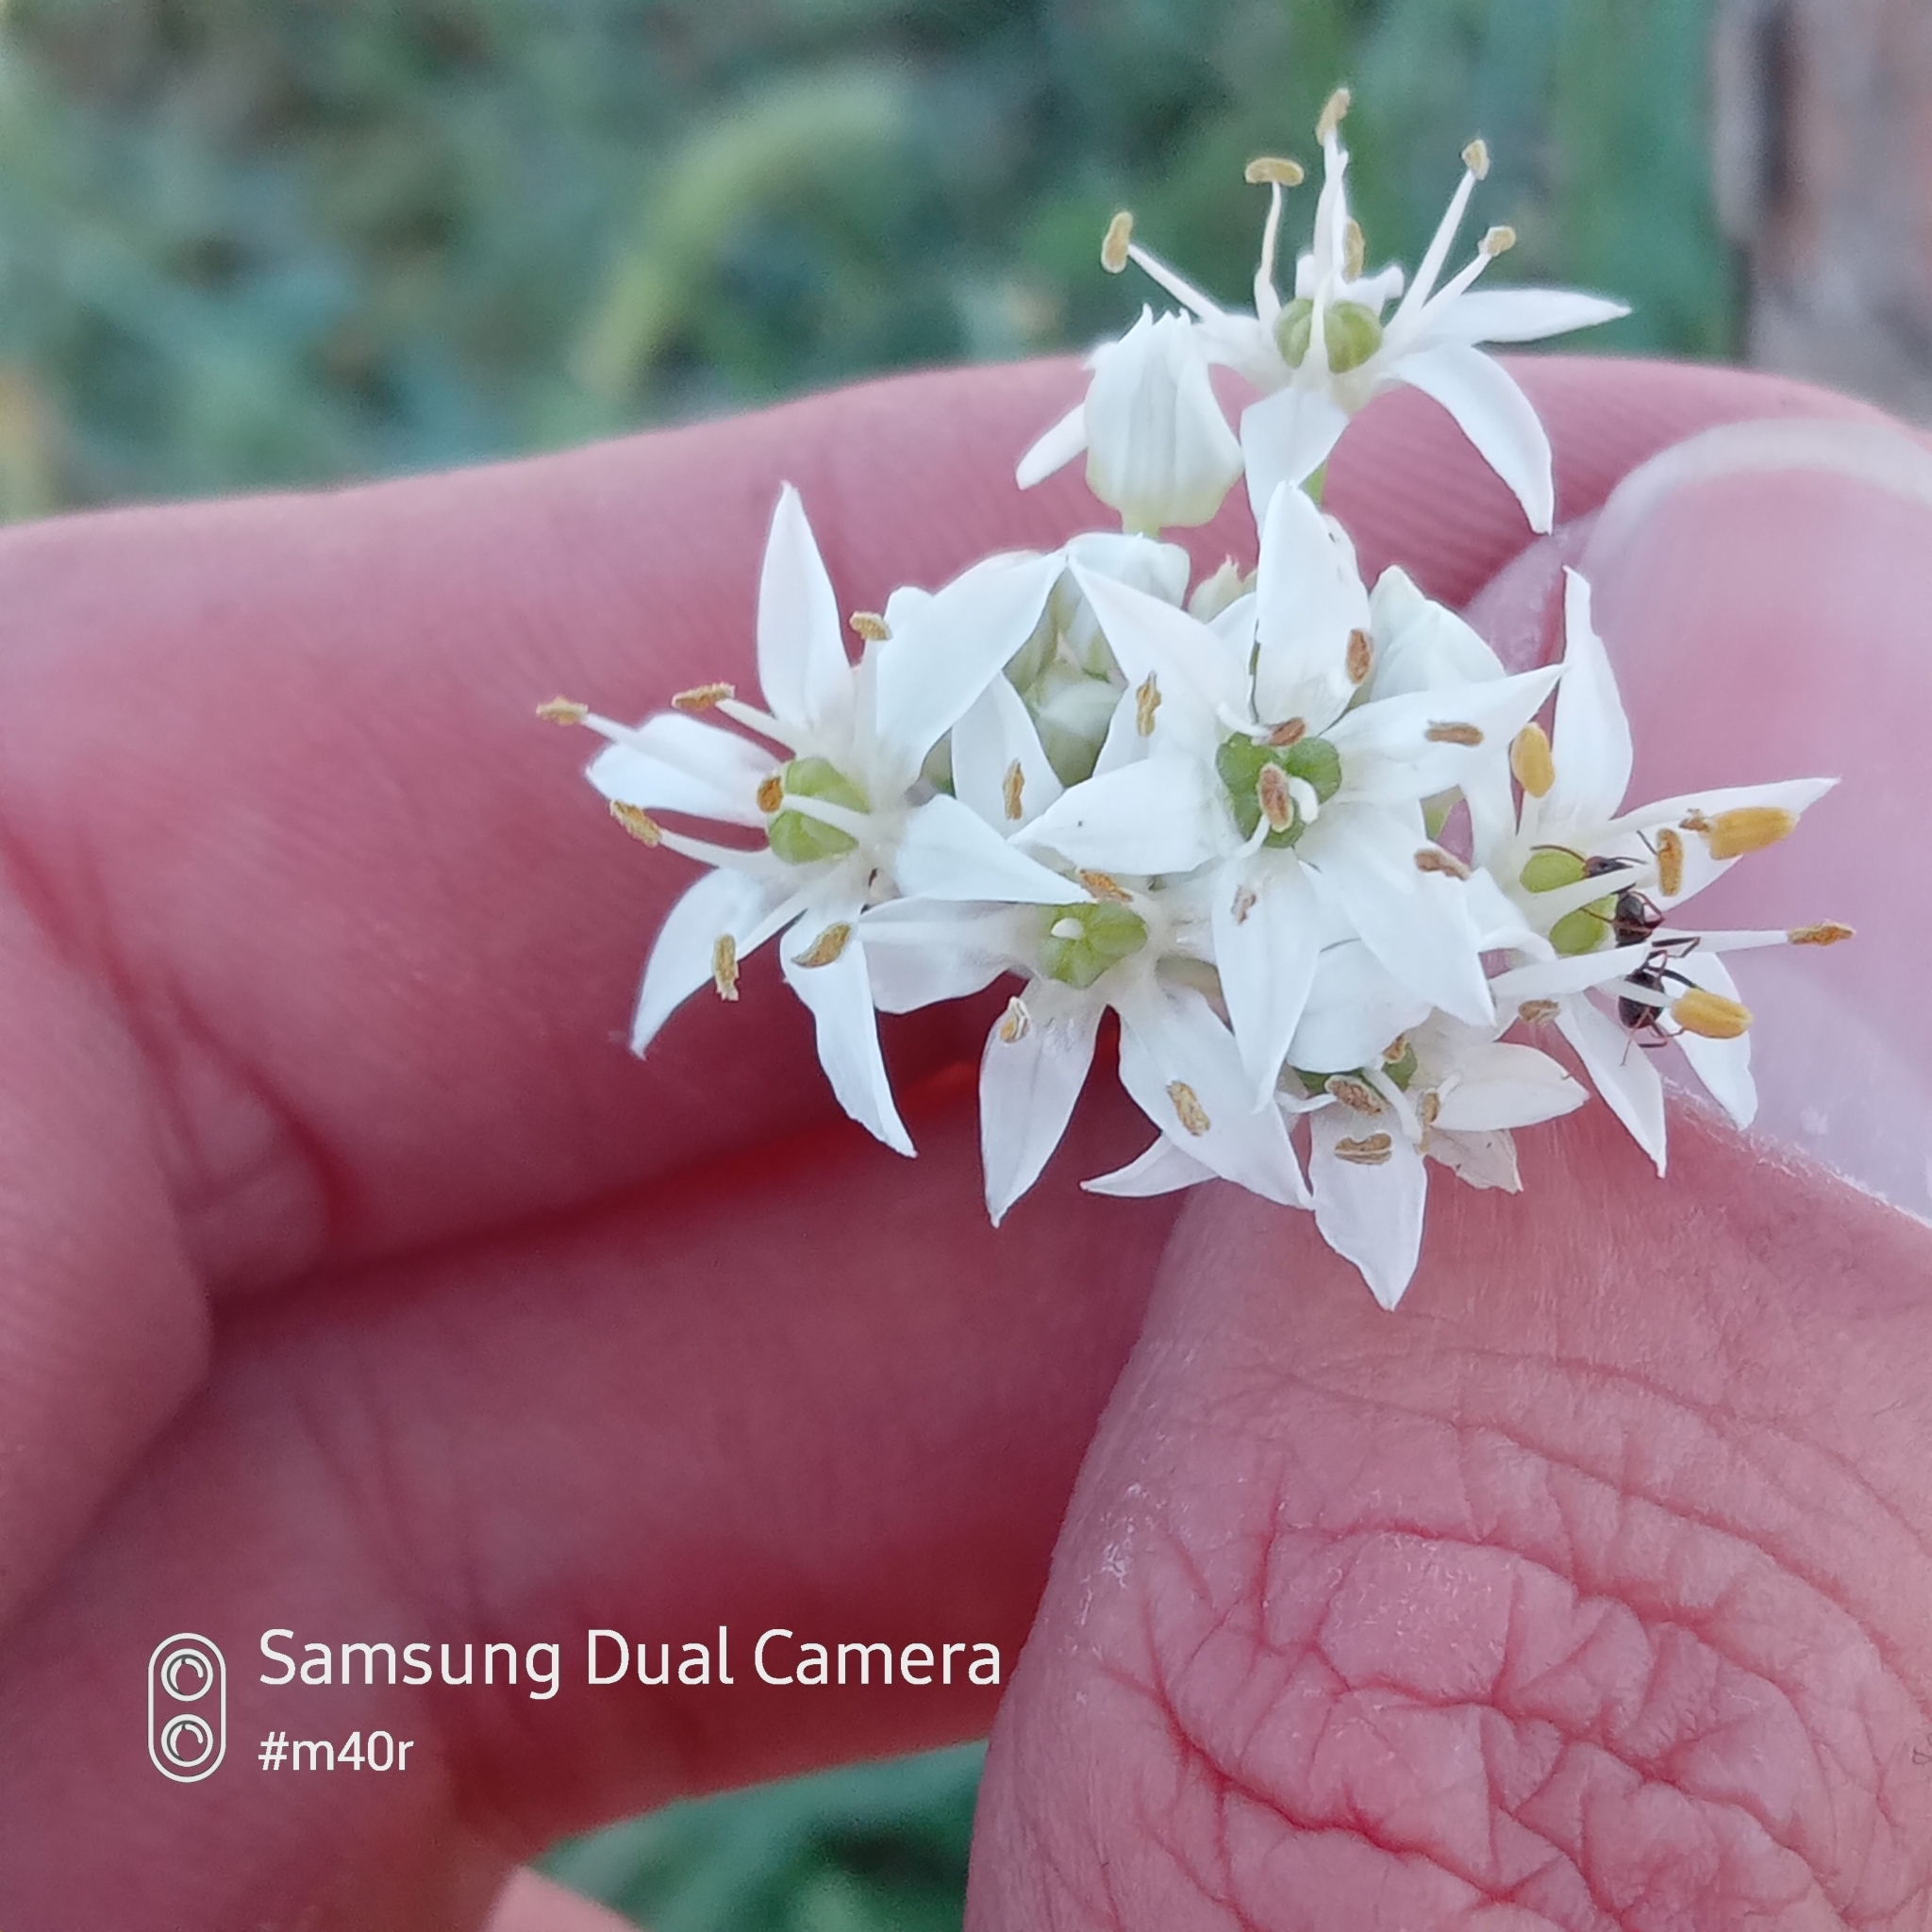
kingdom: Plantae
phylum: Tracheophyta
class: Liliopsida
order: Asparagales
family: Amaryllidaceae
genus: Allium
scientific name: Allium ramosum
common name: Fragrant garlic
